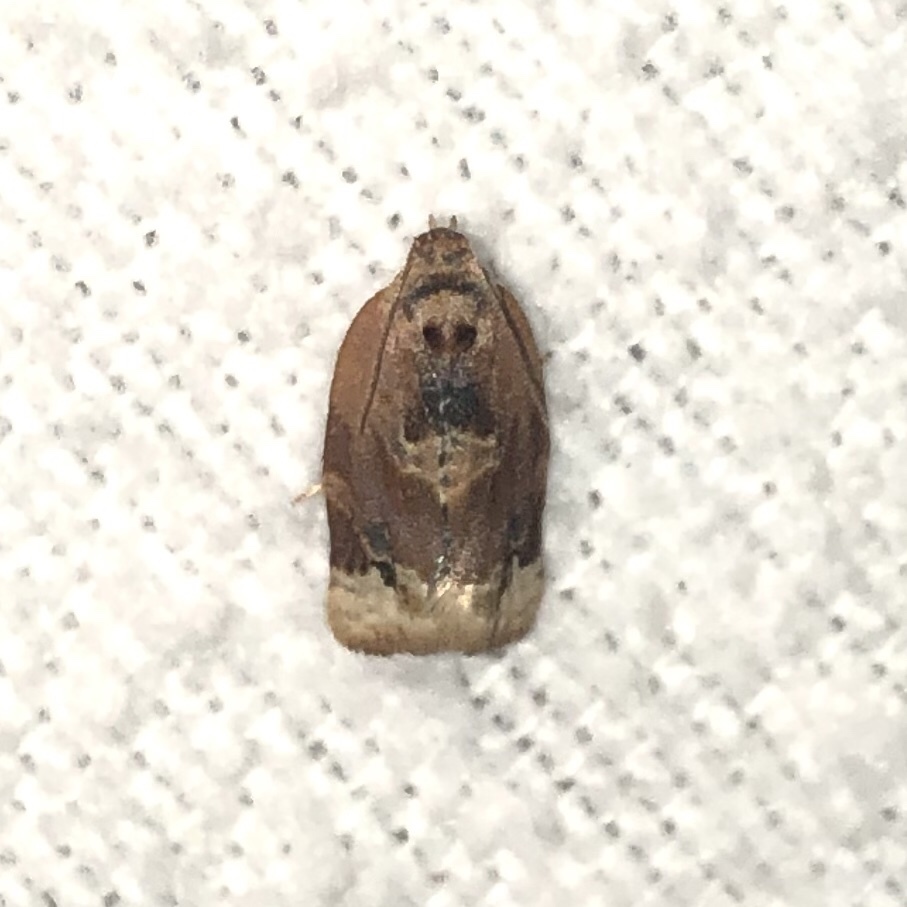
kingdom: Animalia
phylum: Arthropoda
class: Insecta
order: Lepidoptera
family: Tortricidae
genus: Argyrotaenia
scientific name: Argyrotaenia velutinana
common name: Red-banded leafroller moth
